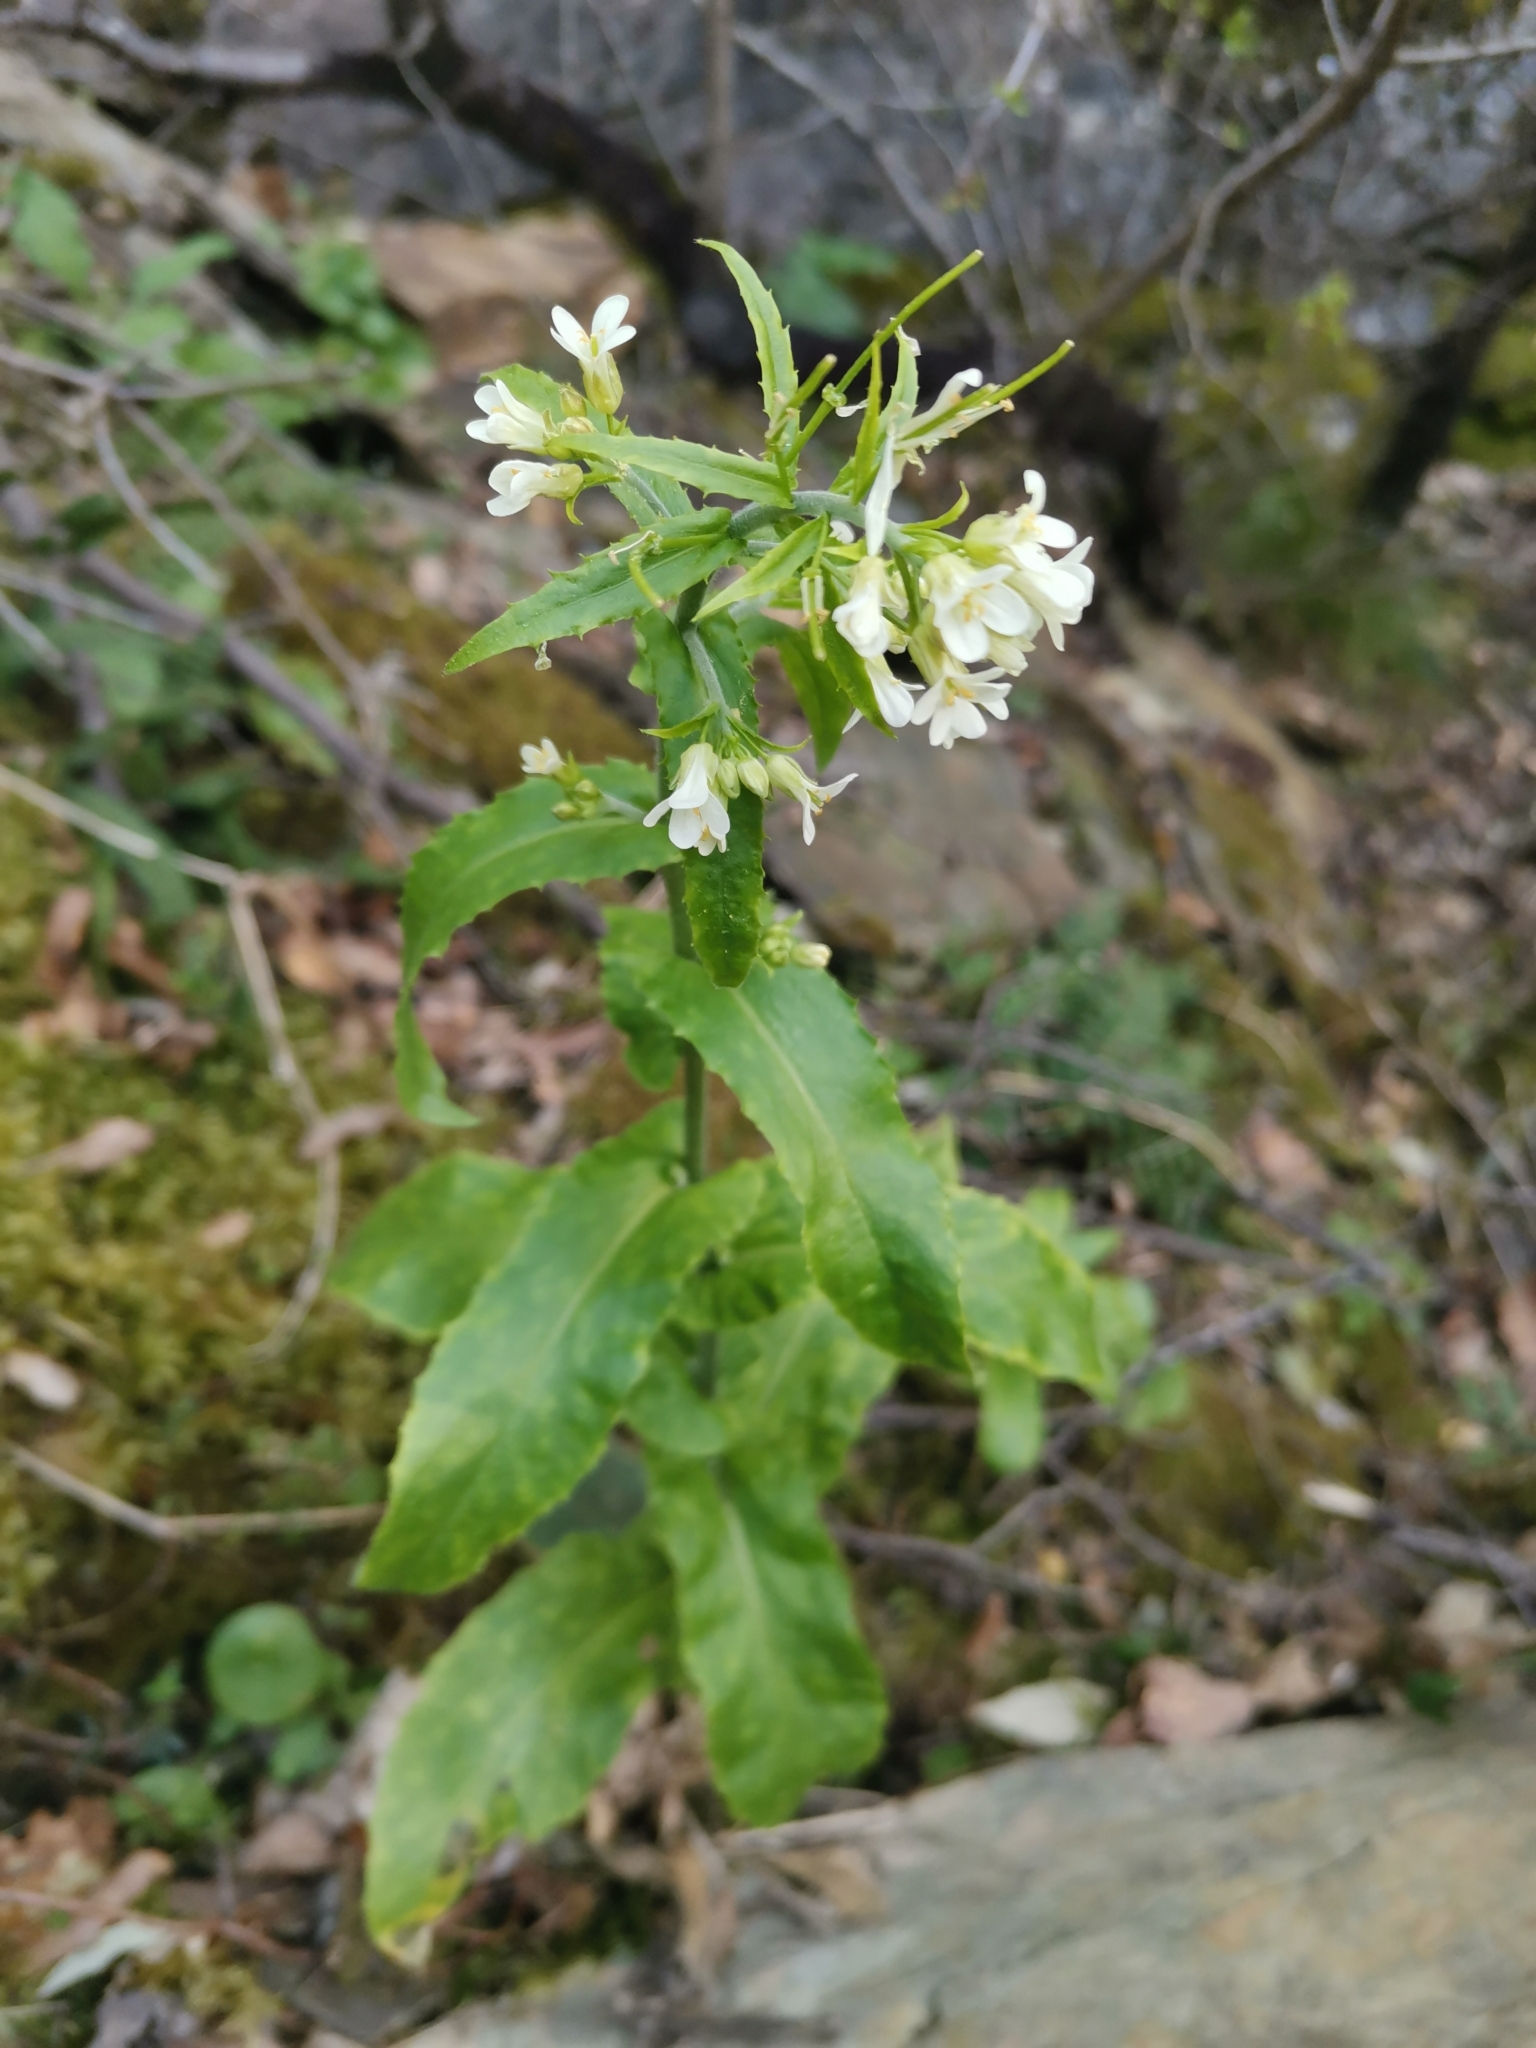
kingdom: Plantae
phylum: Tracheophyta
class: Magnoliopsida
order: Brassicales
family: Brassicaceae
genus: Pseudoturritis
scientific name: Pseudoturritis turrita
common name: Tower cress
